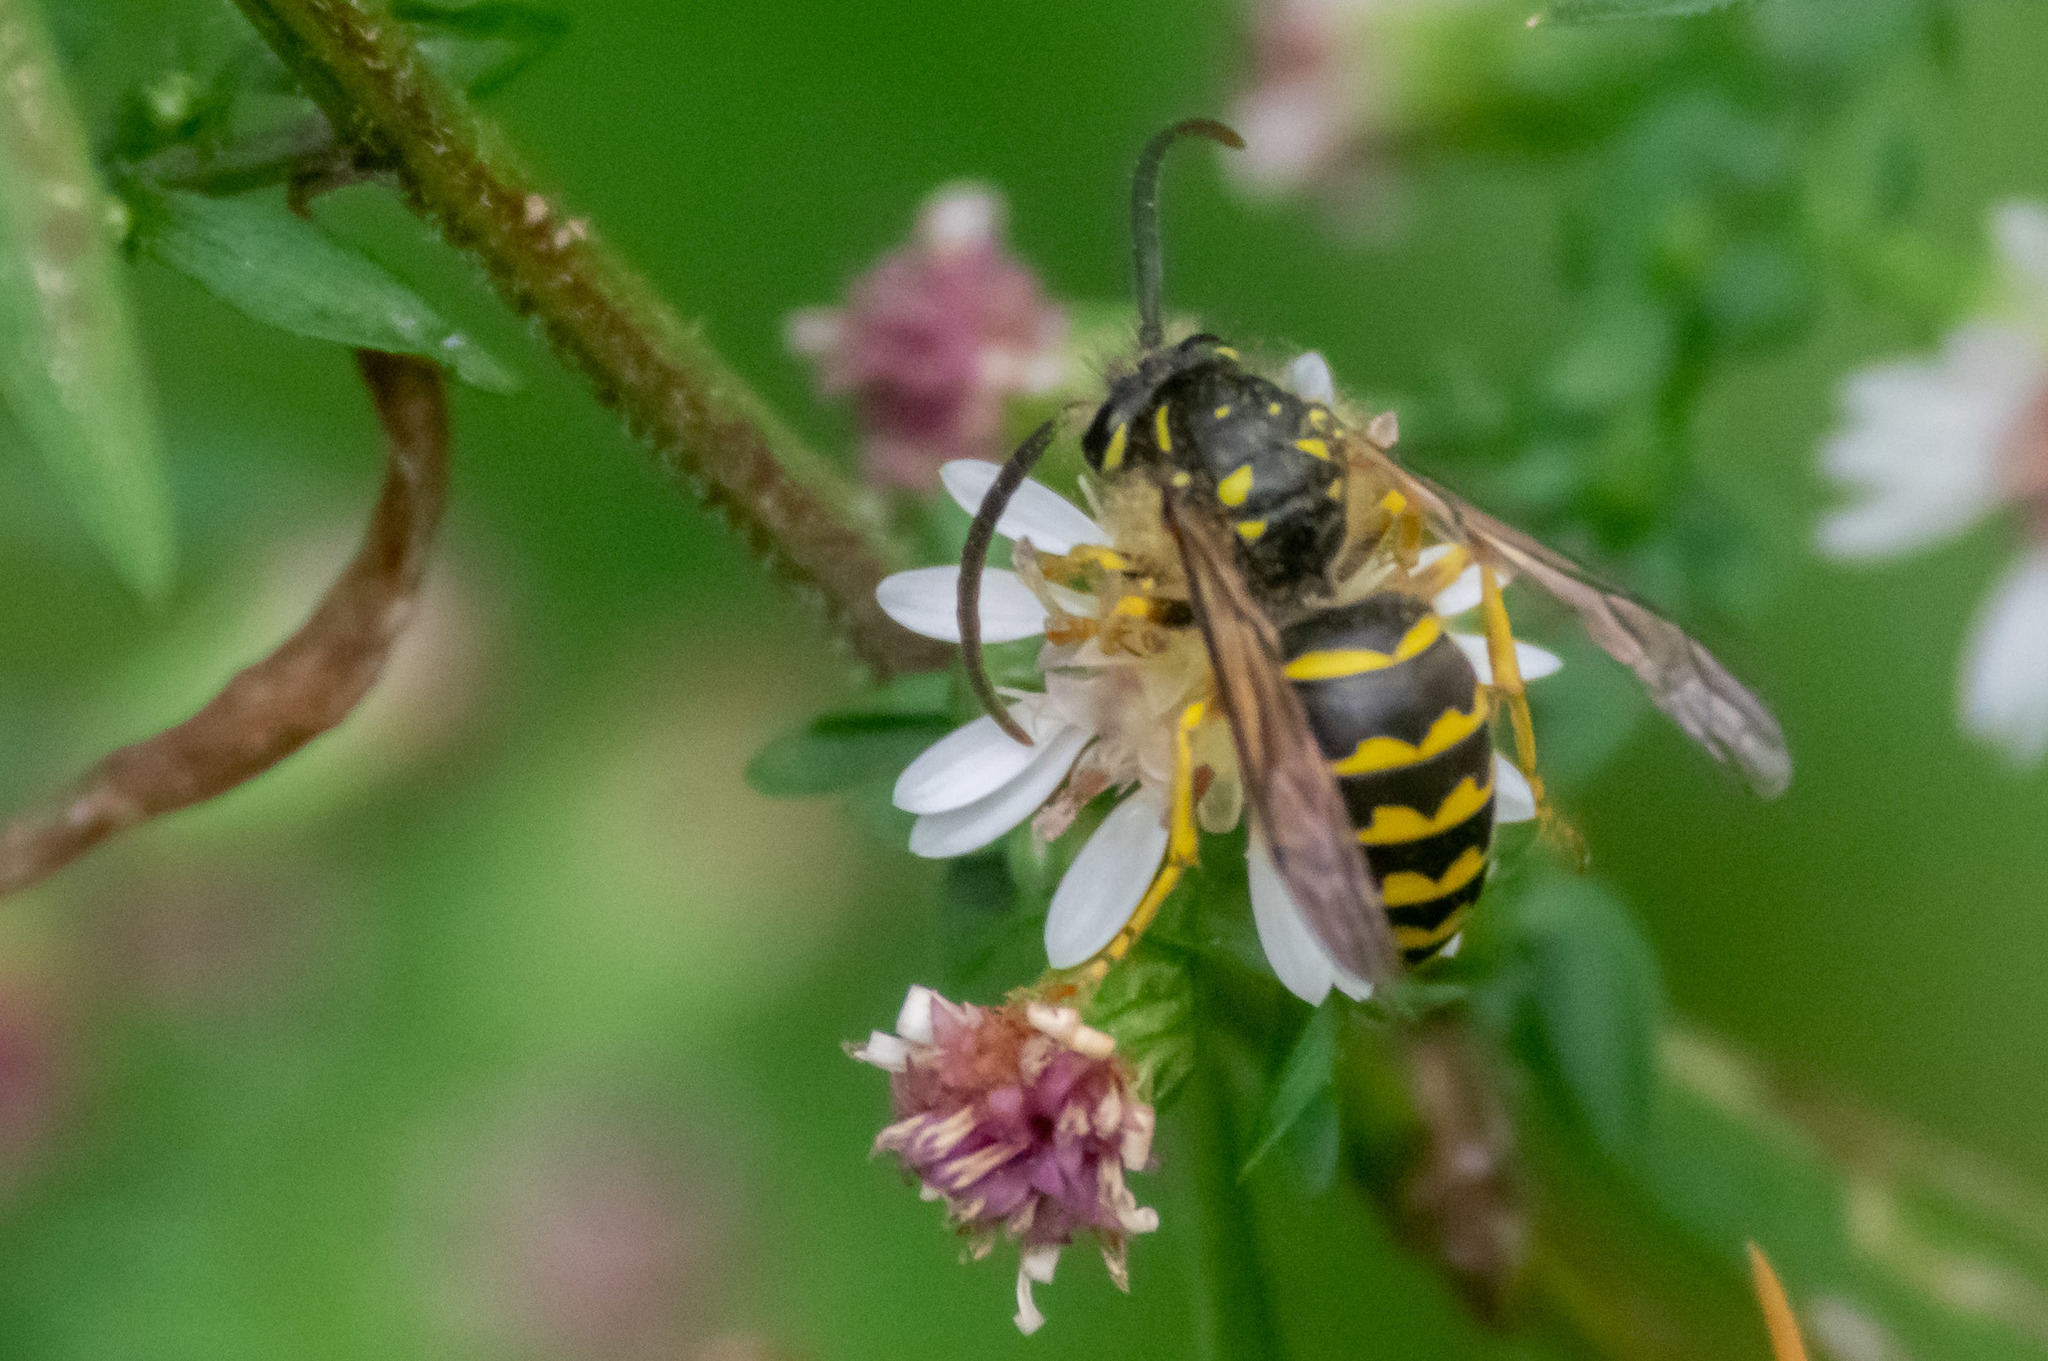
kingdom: Animalia
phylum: Arthropoda
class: Insecta
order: Hymenoptera
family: Vespidae
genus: Dolichovespula
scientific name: Dolichovespula arenaria
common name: Aerial yellowjacket
